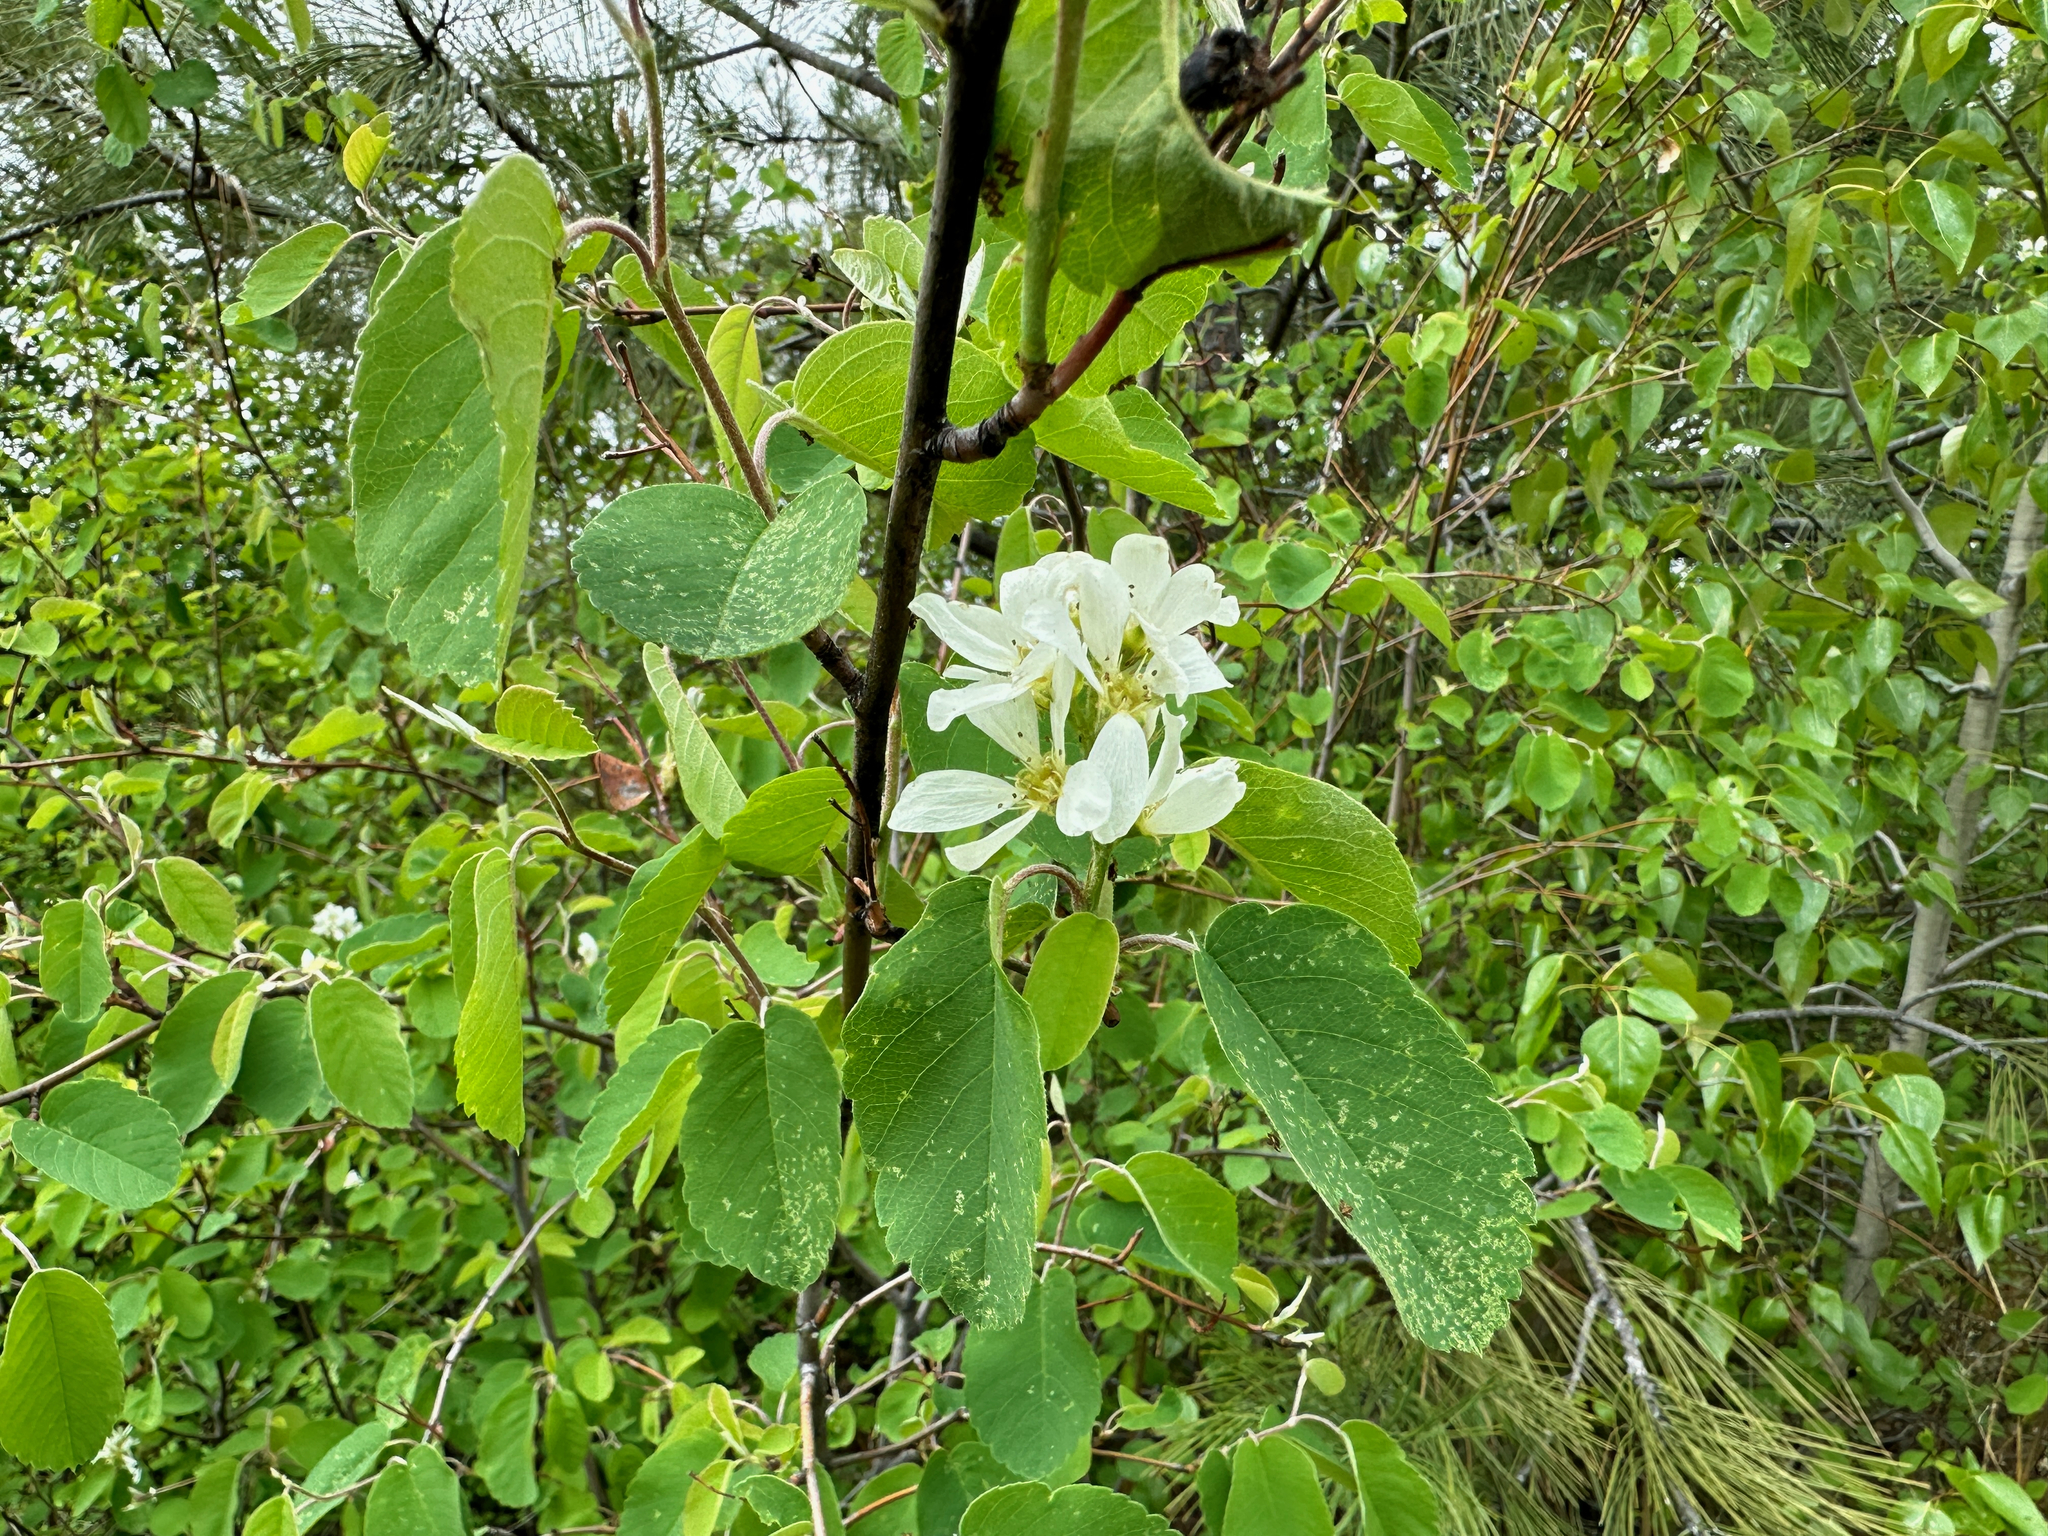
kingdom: Plantae
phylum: Tracheophyta
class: Magnoliopsida
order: Rosales
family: Rosaceae
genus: Amelanchier
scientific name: Amelanchier alnifolia
